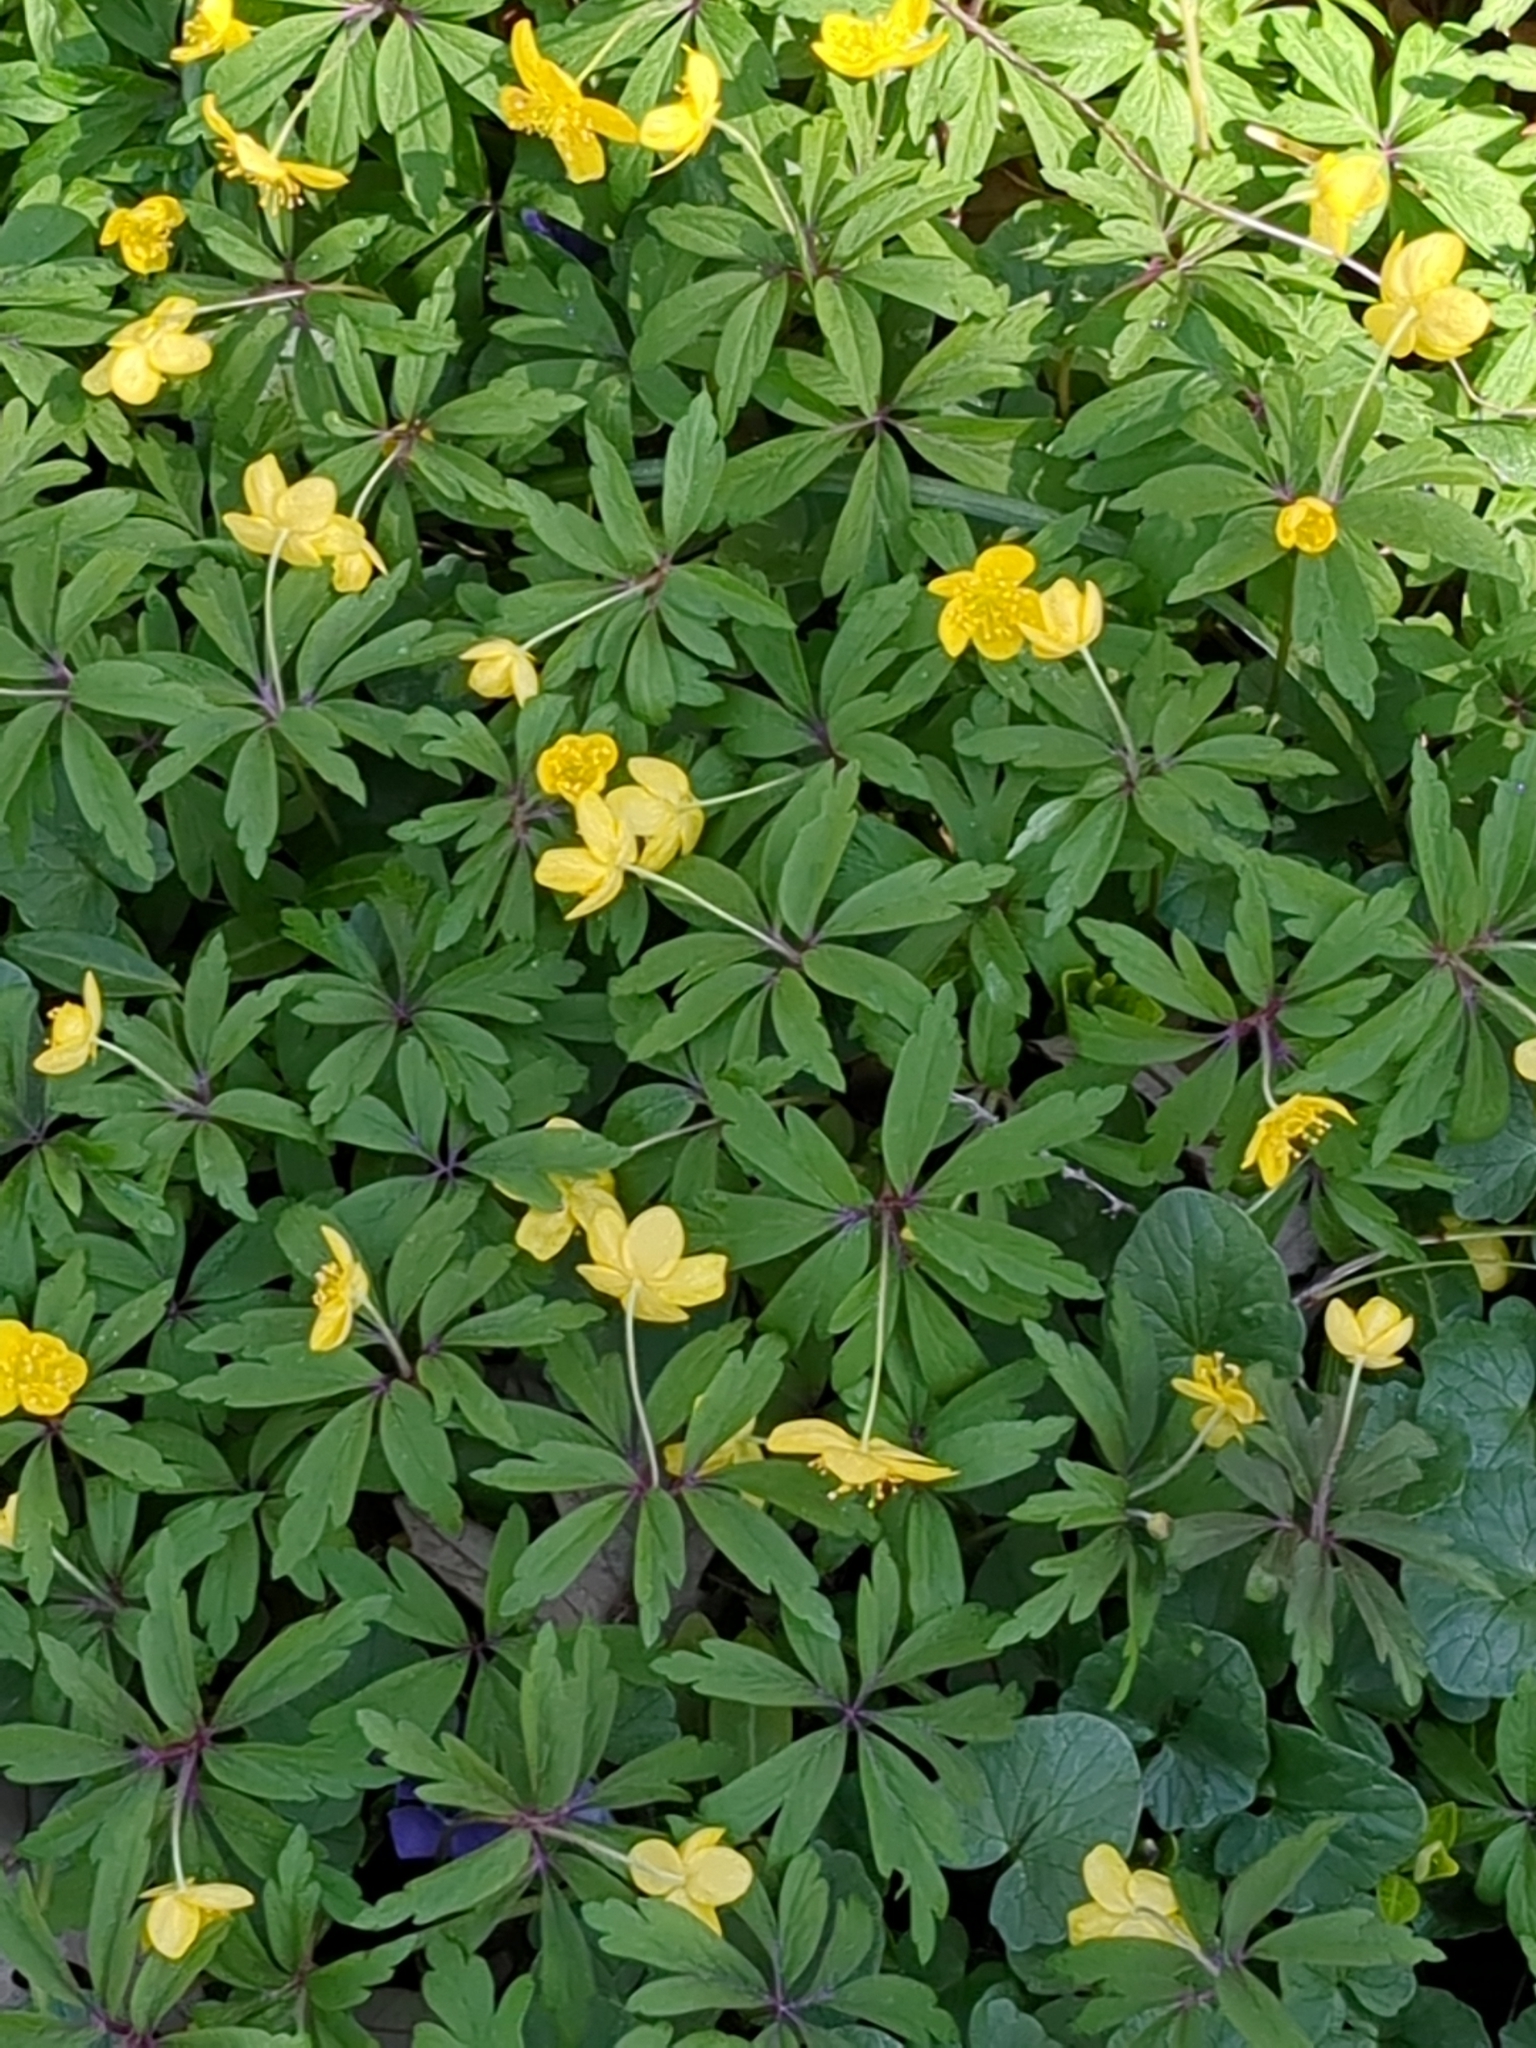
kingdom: Plantae
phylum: Tracheophyta
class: Magnoliopsida
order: Ranunculales
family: Ranunculaceae
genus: Anemone
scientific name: Anemone ranunculoides
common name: Yellow anemone
